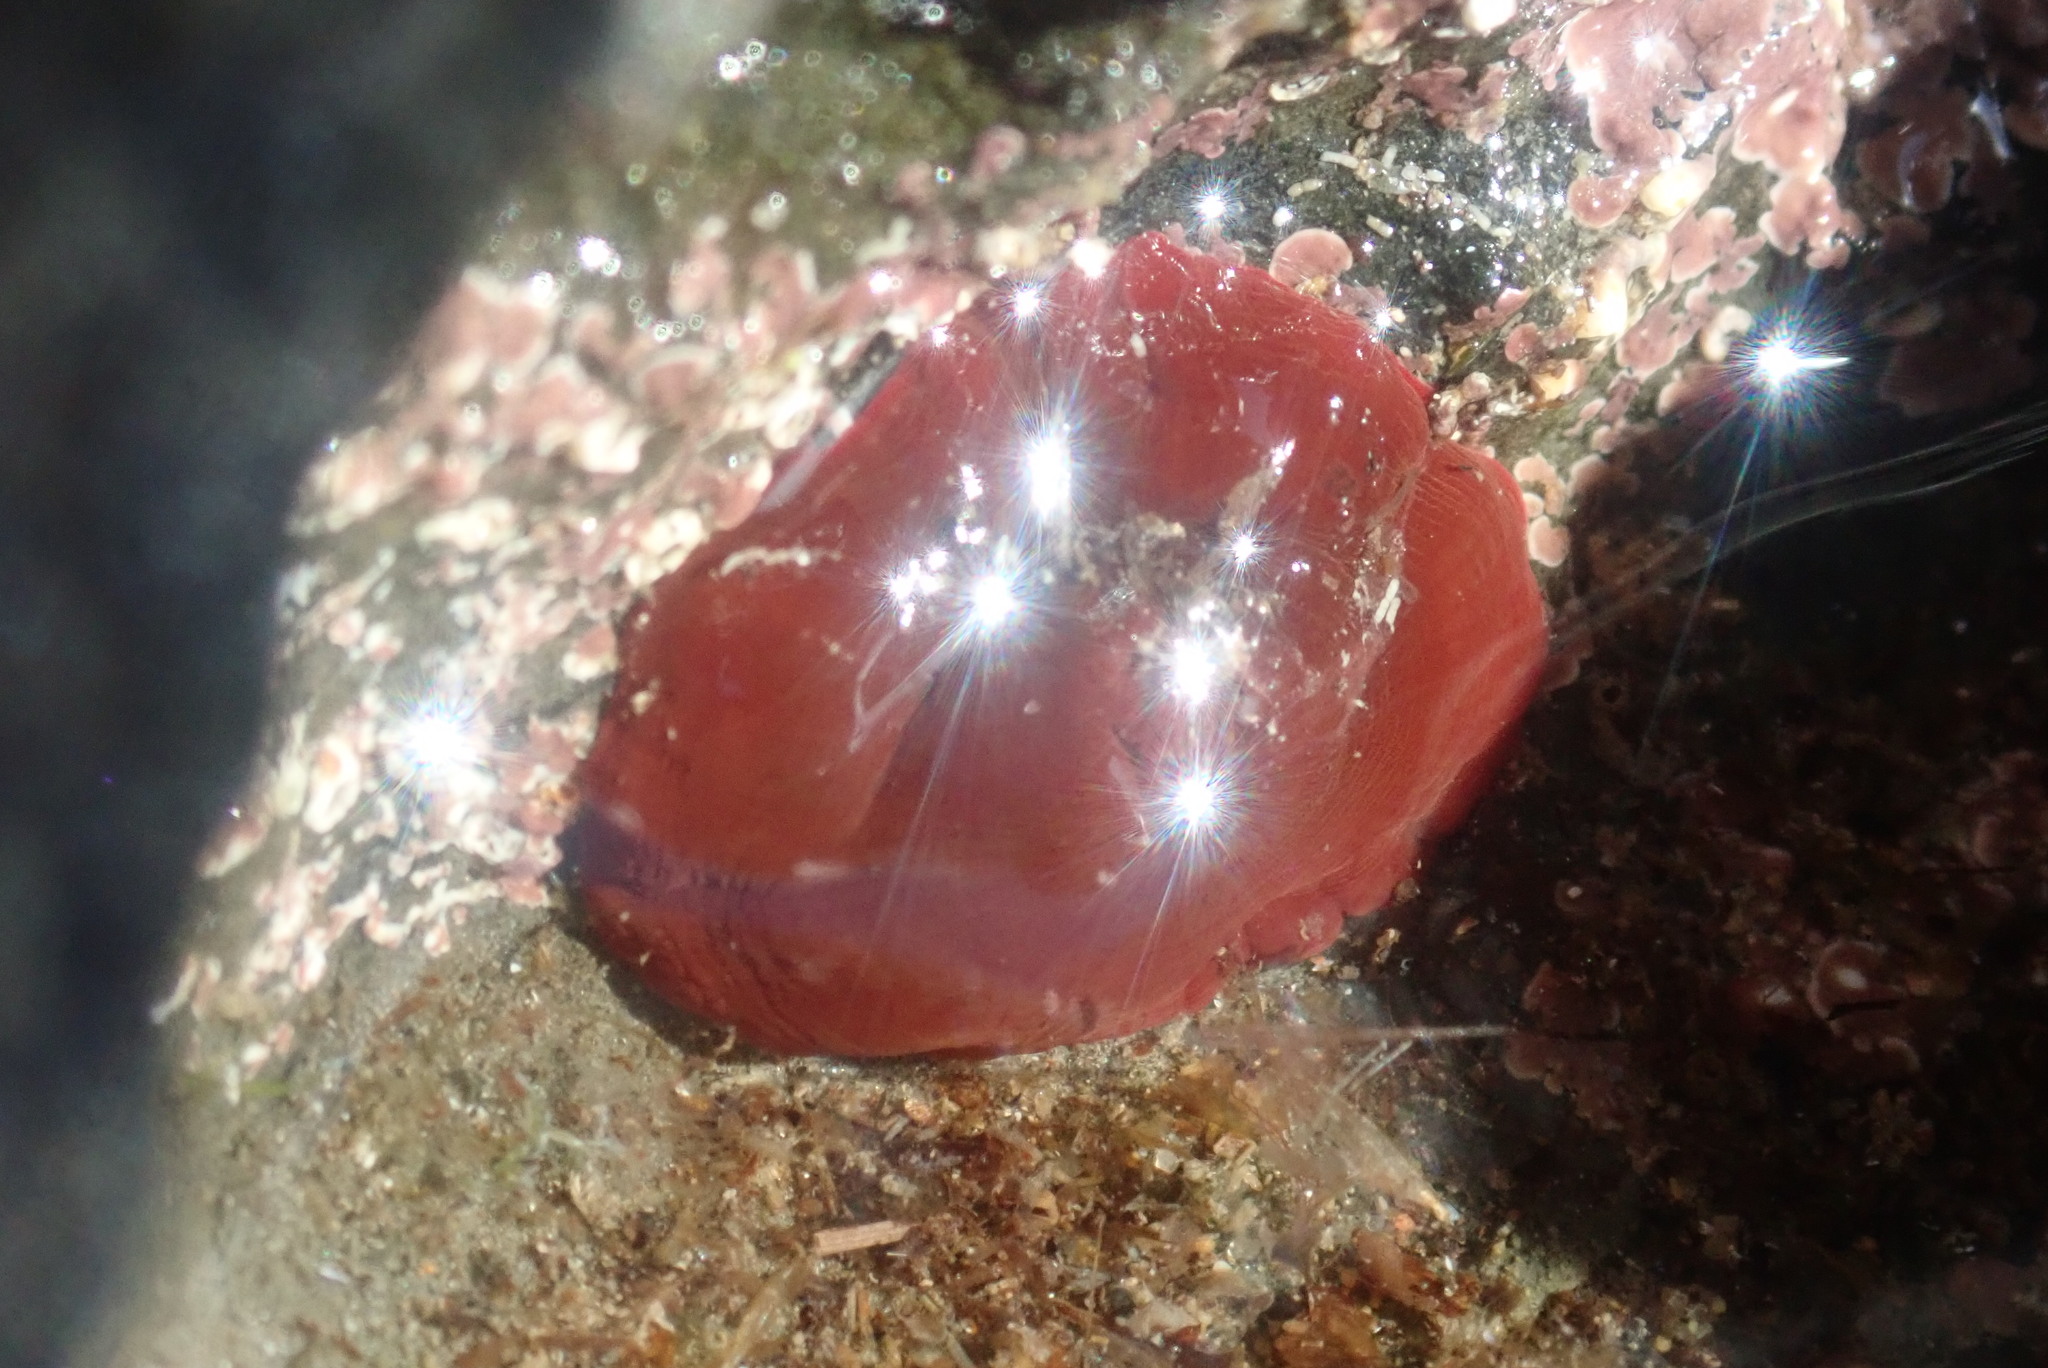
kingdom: Animalia
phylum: Cnidaria
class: Anthozoa
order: Actiniaria
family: Actiniidae
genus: Actinia
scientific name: Actinia equina
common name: Beadlet anemone
